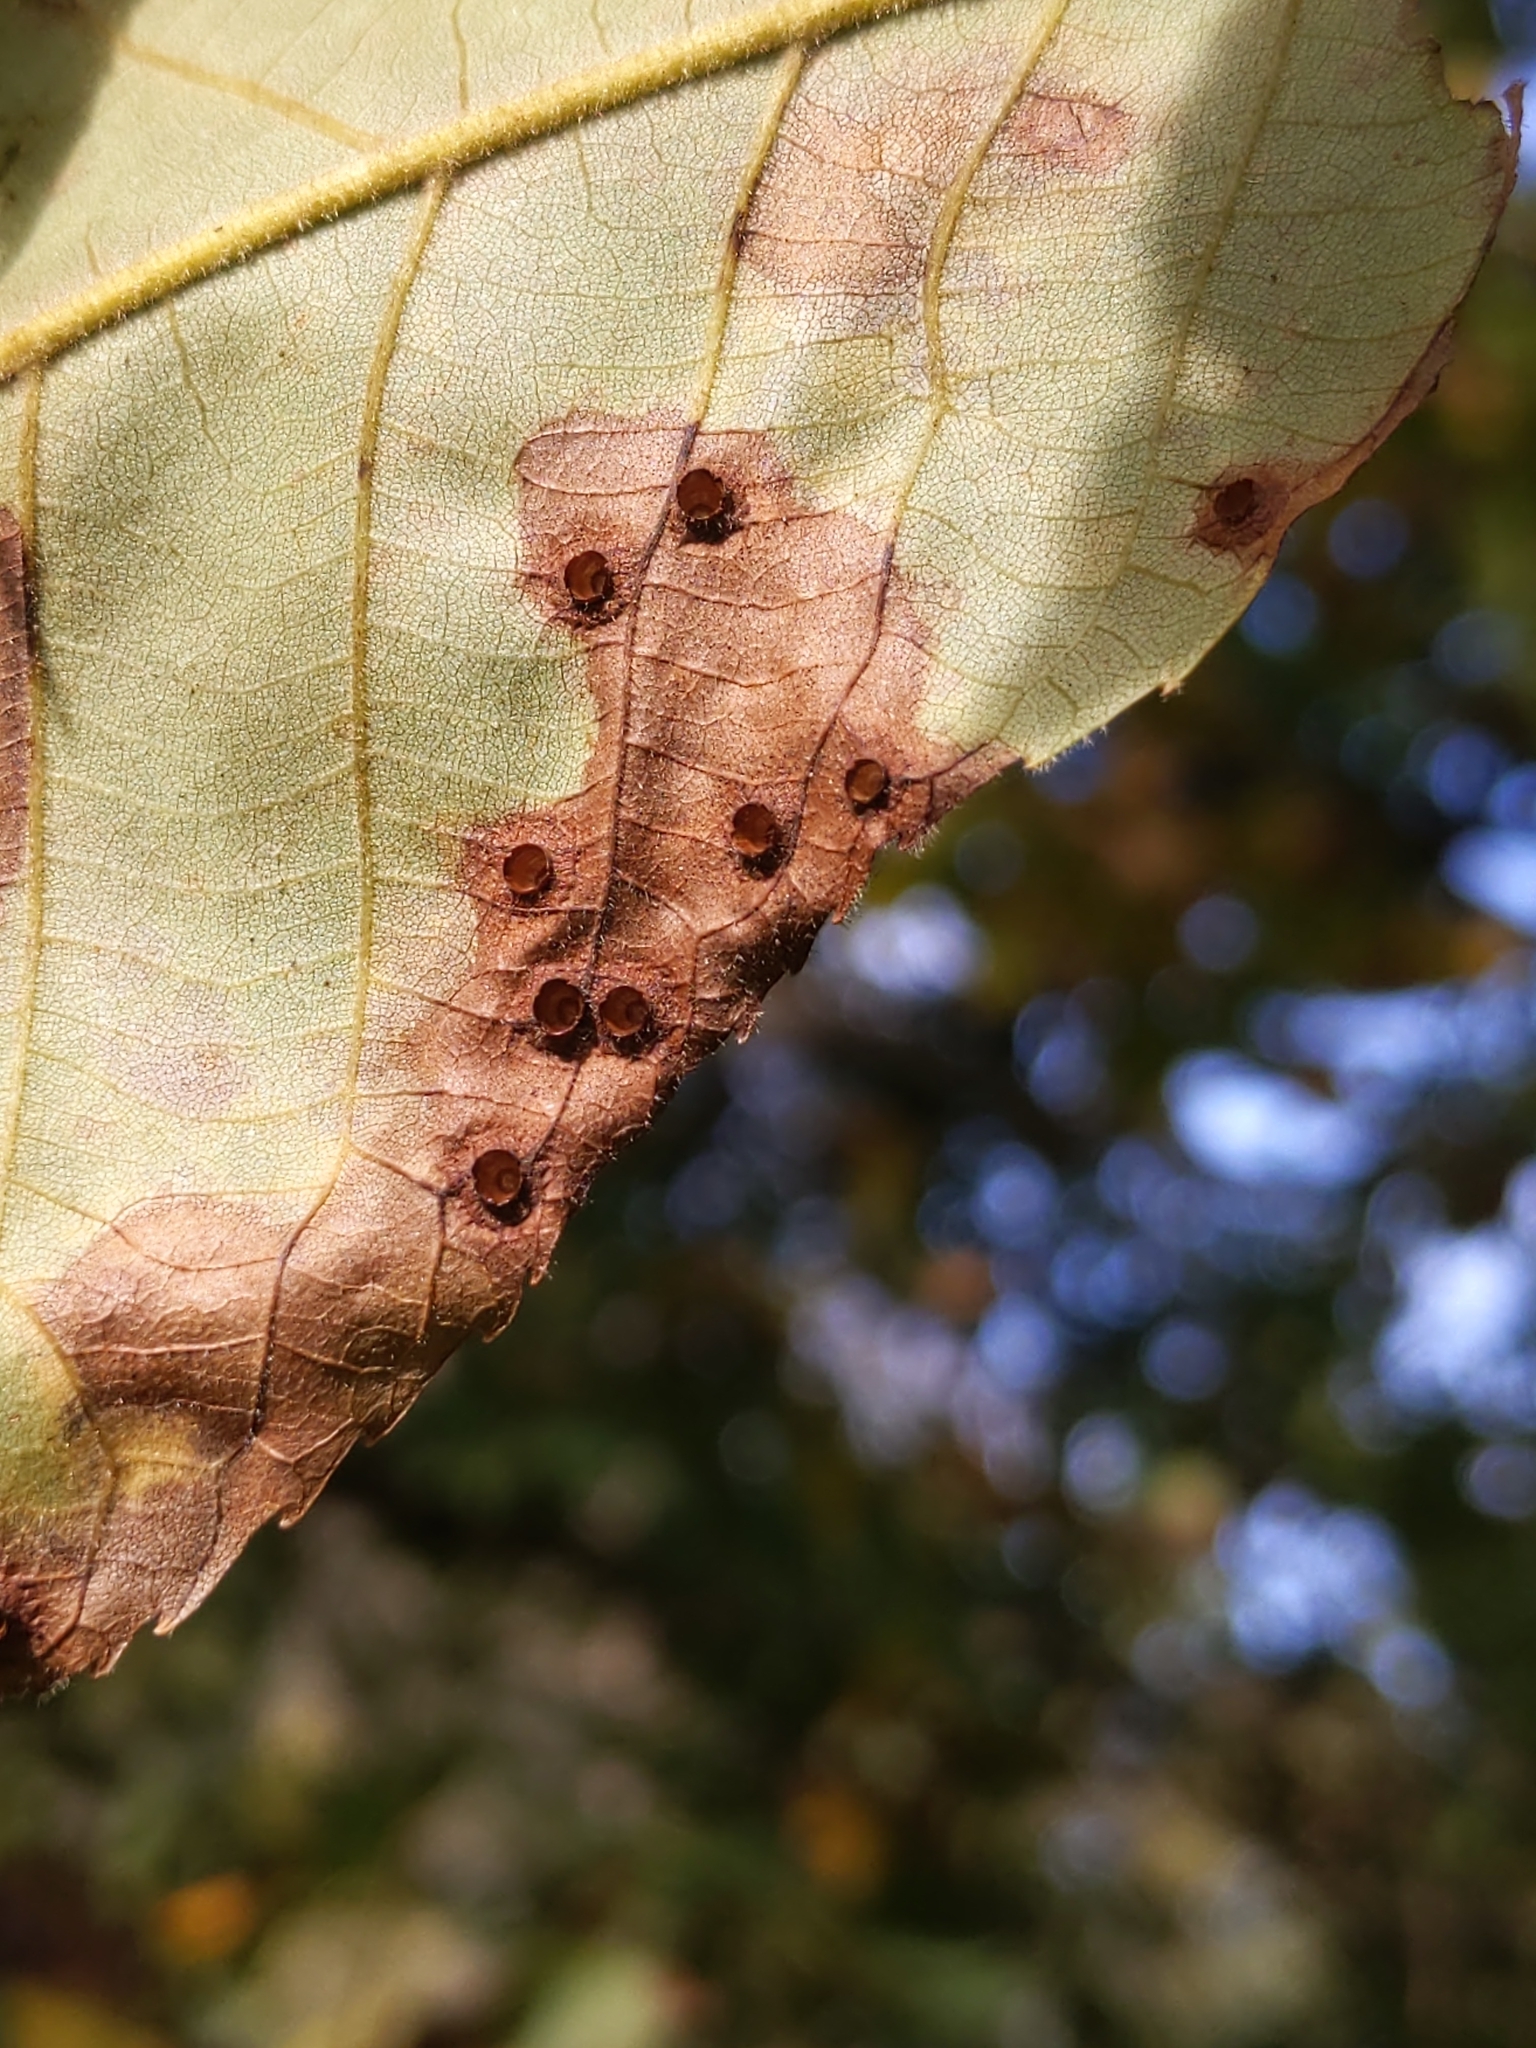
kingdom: Animalia
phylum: Arthropoda
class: Insecta
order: Diptera
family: Cecidomyiidae
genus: Caryomyia
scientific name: Caryomyia tubicola
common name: Hickory bullet gall midge
